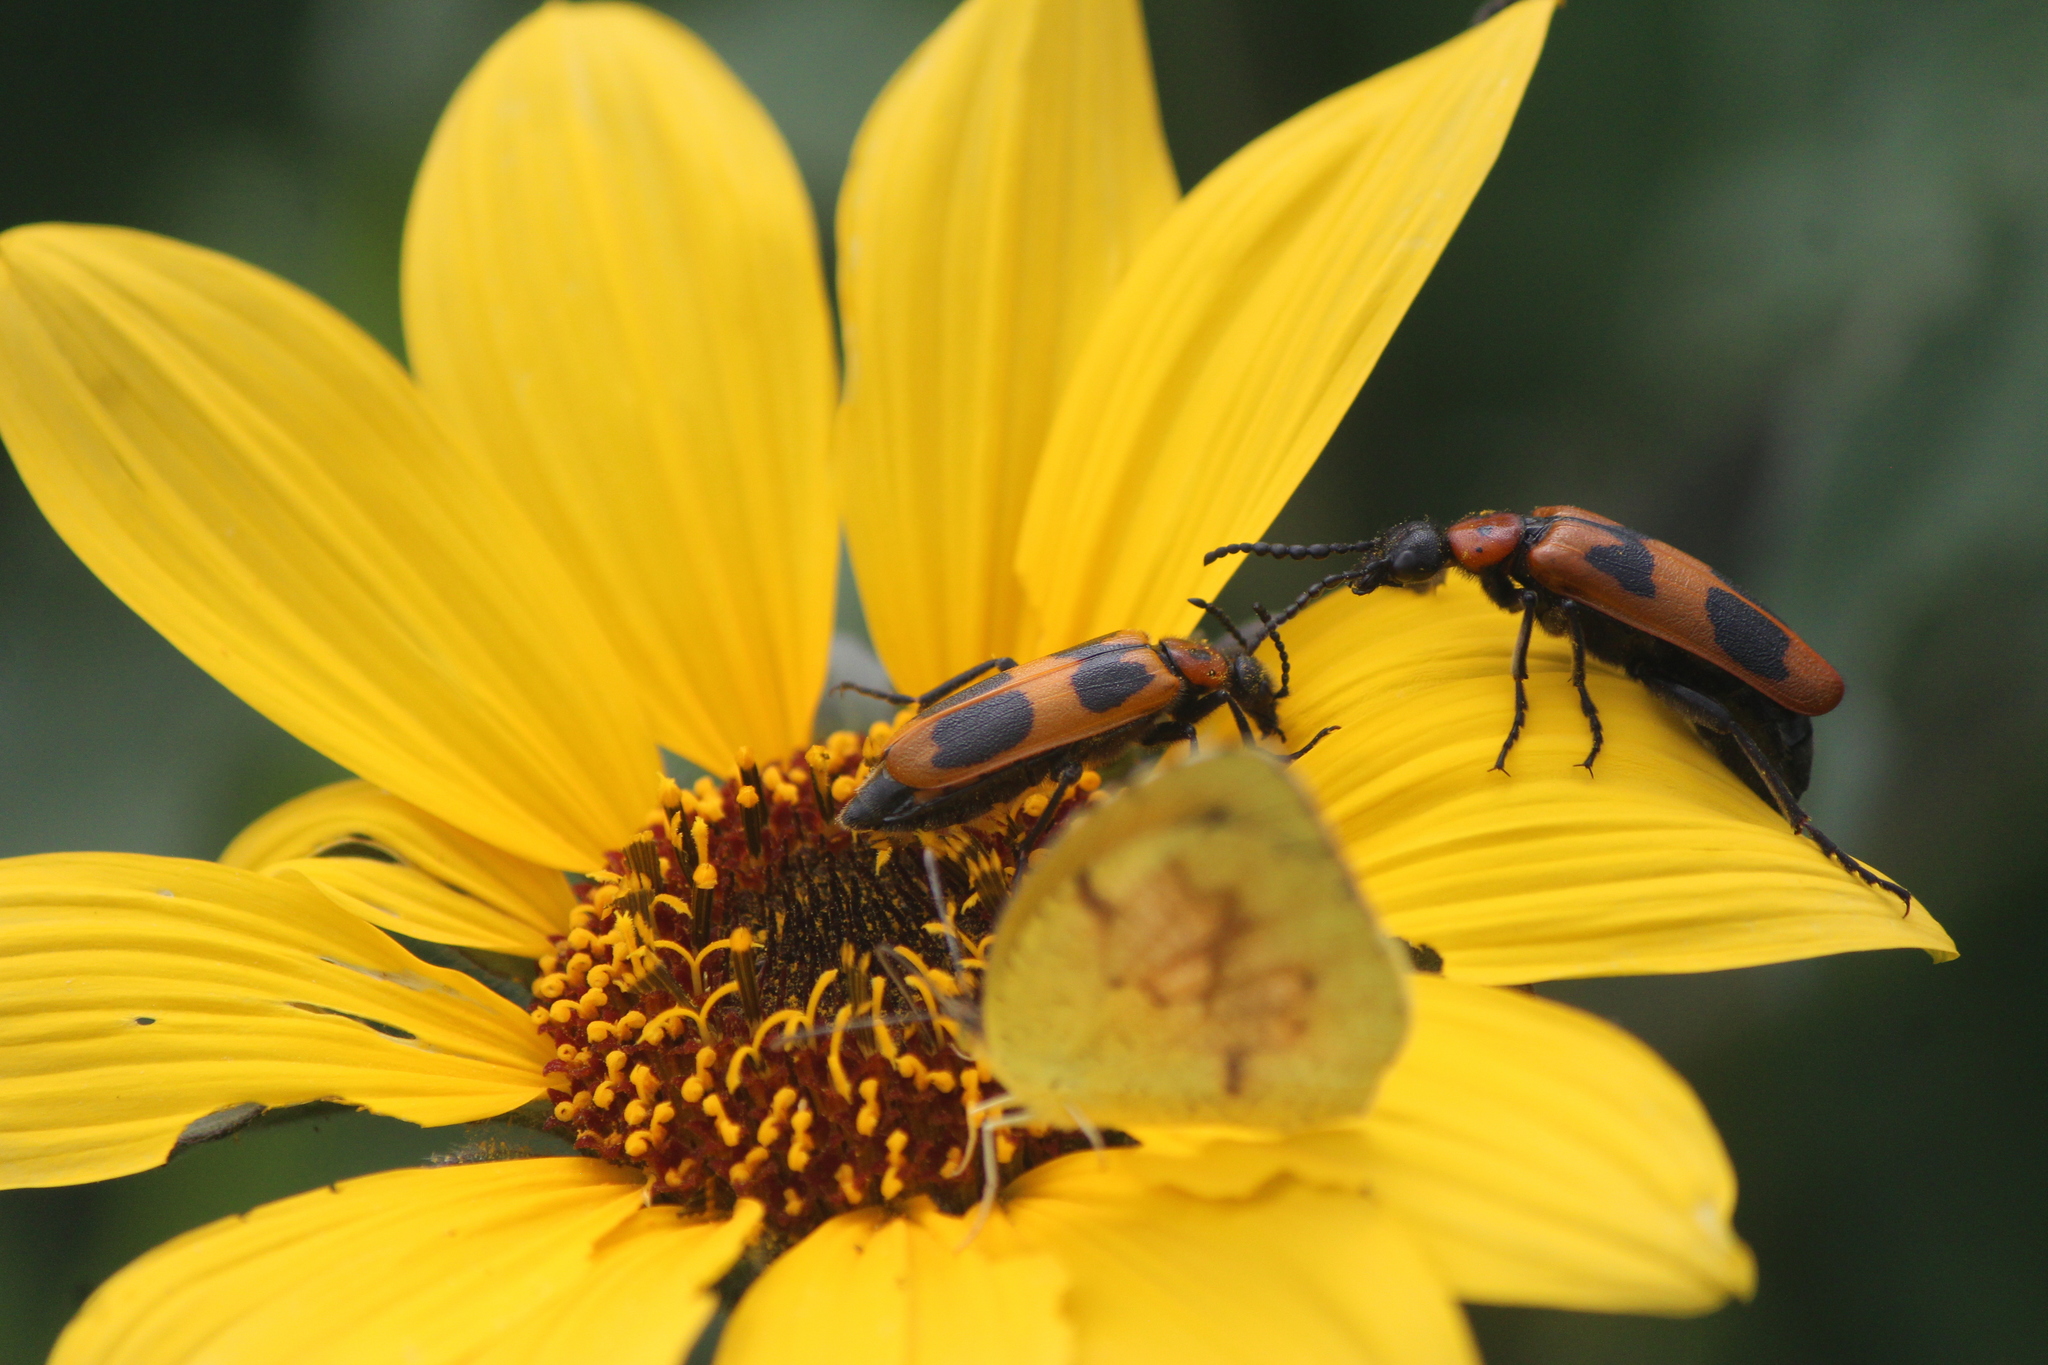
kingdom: Animalia
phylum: Arthropoda
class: Insecta
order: Coleoptera
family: Meloidae
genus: Lytta
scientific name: Lytta quadrimaculata
